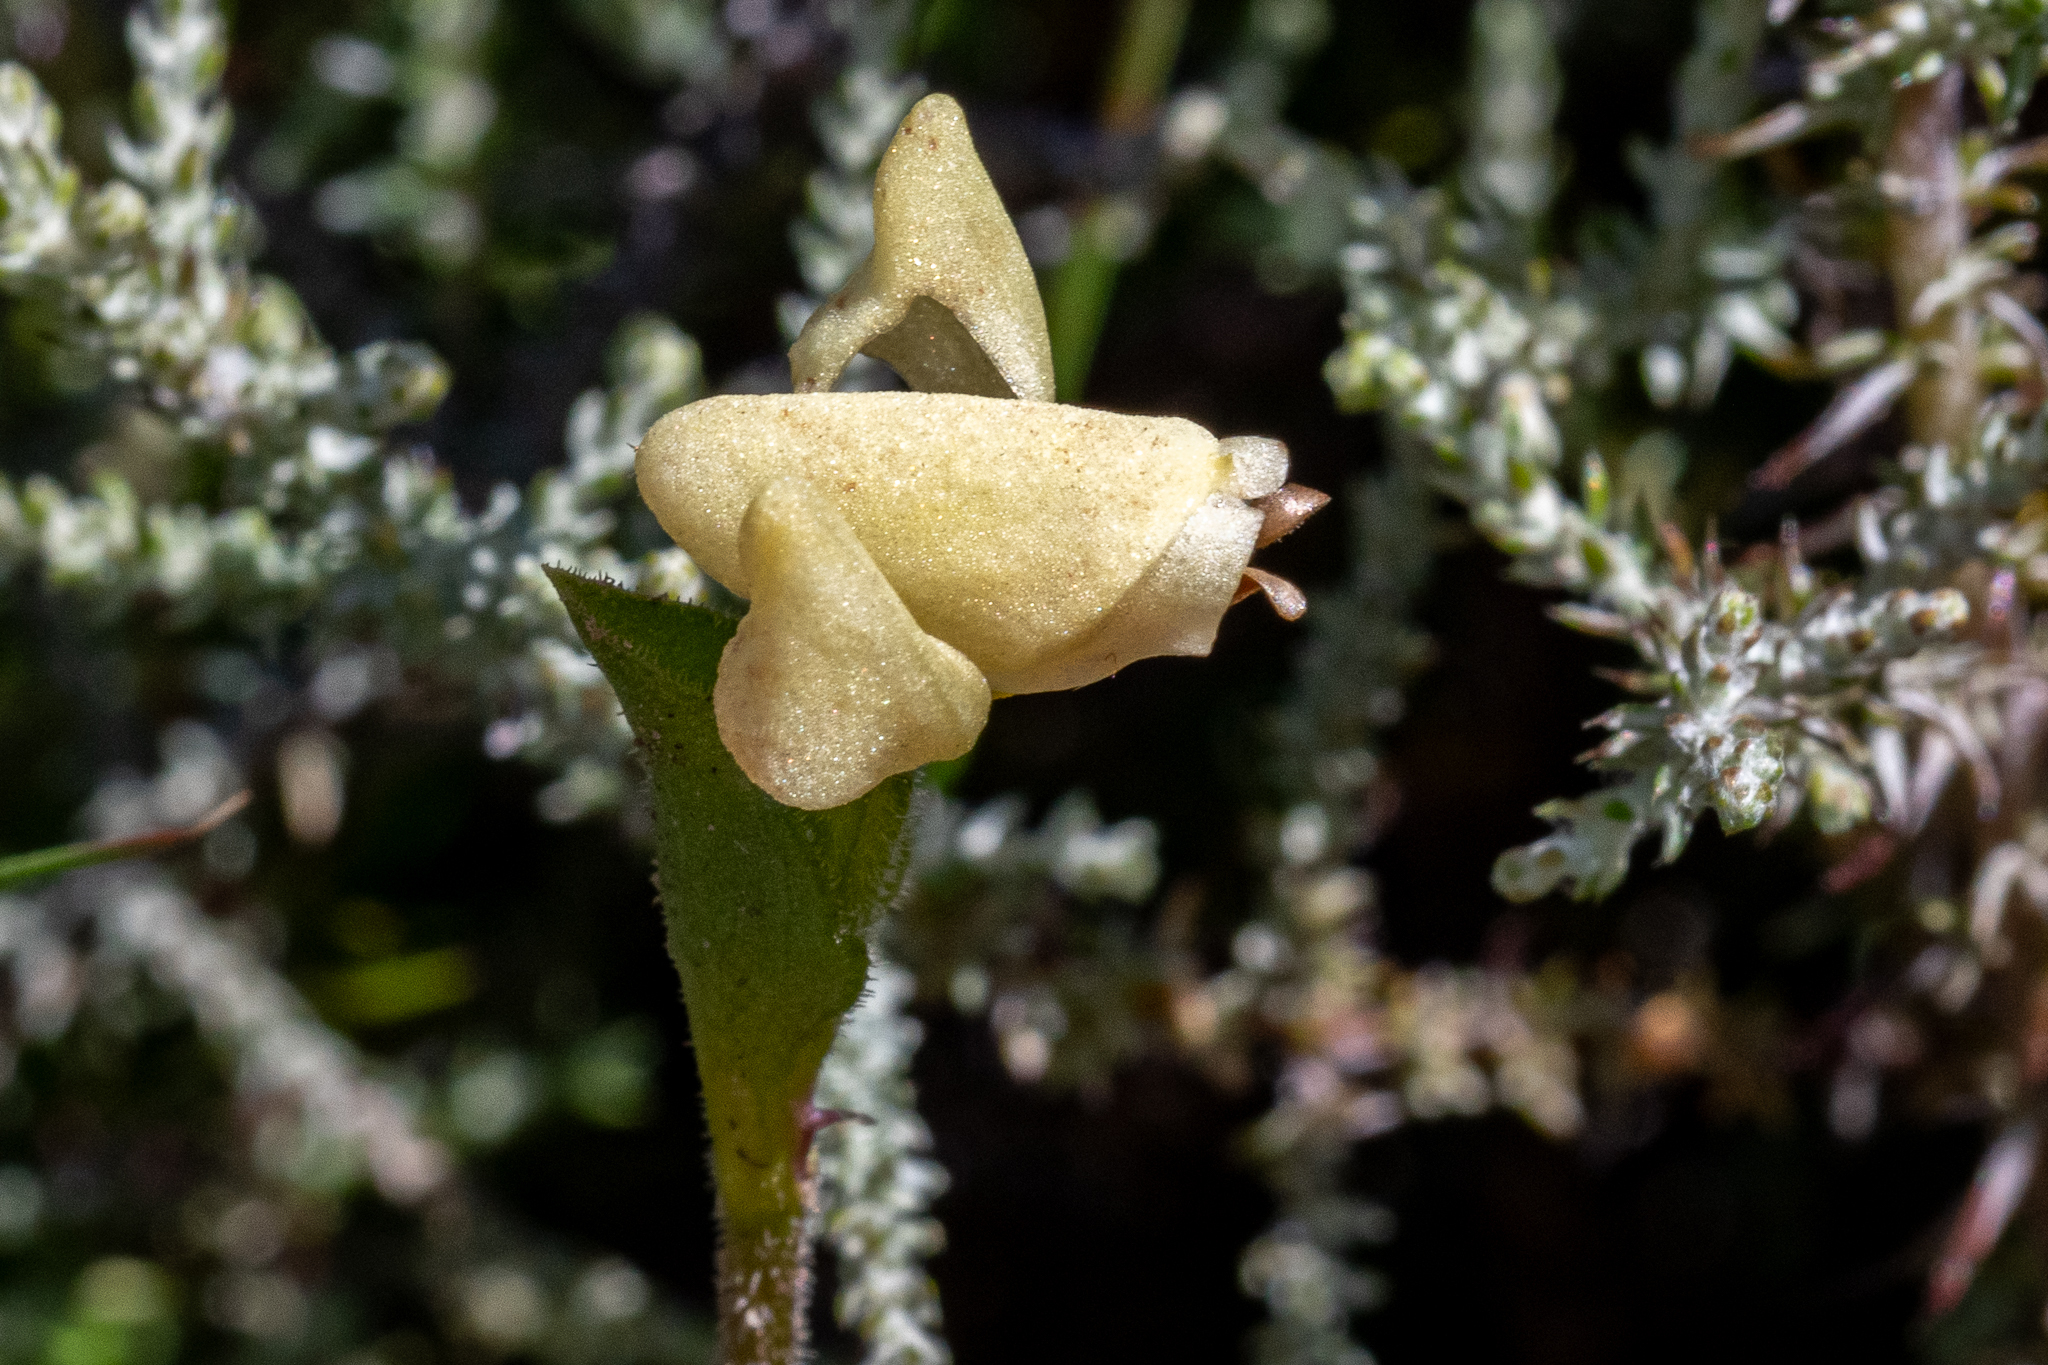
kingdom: Plantae
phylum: Tracheophyta
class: Liliopsida
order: Asparagales
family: Orchidaceae
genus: Disperis
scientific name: Disperis villosa
